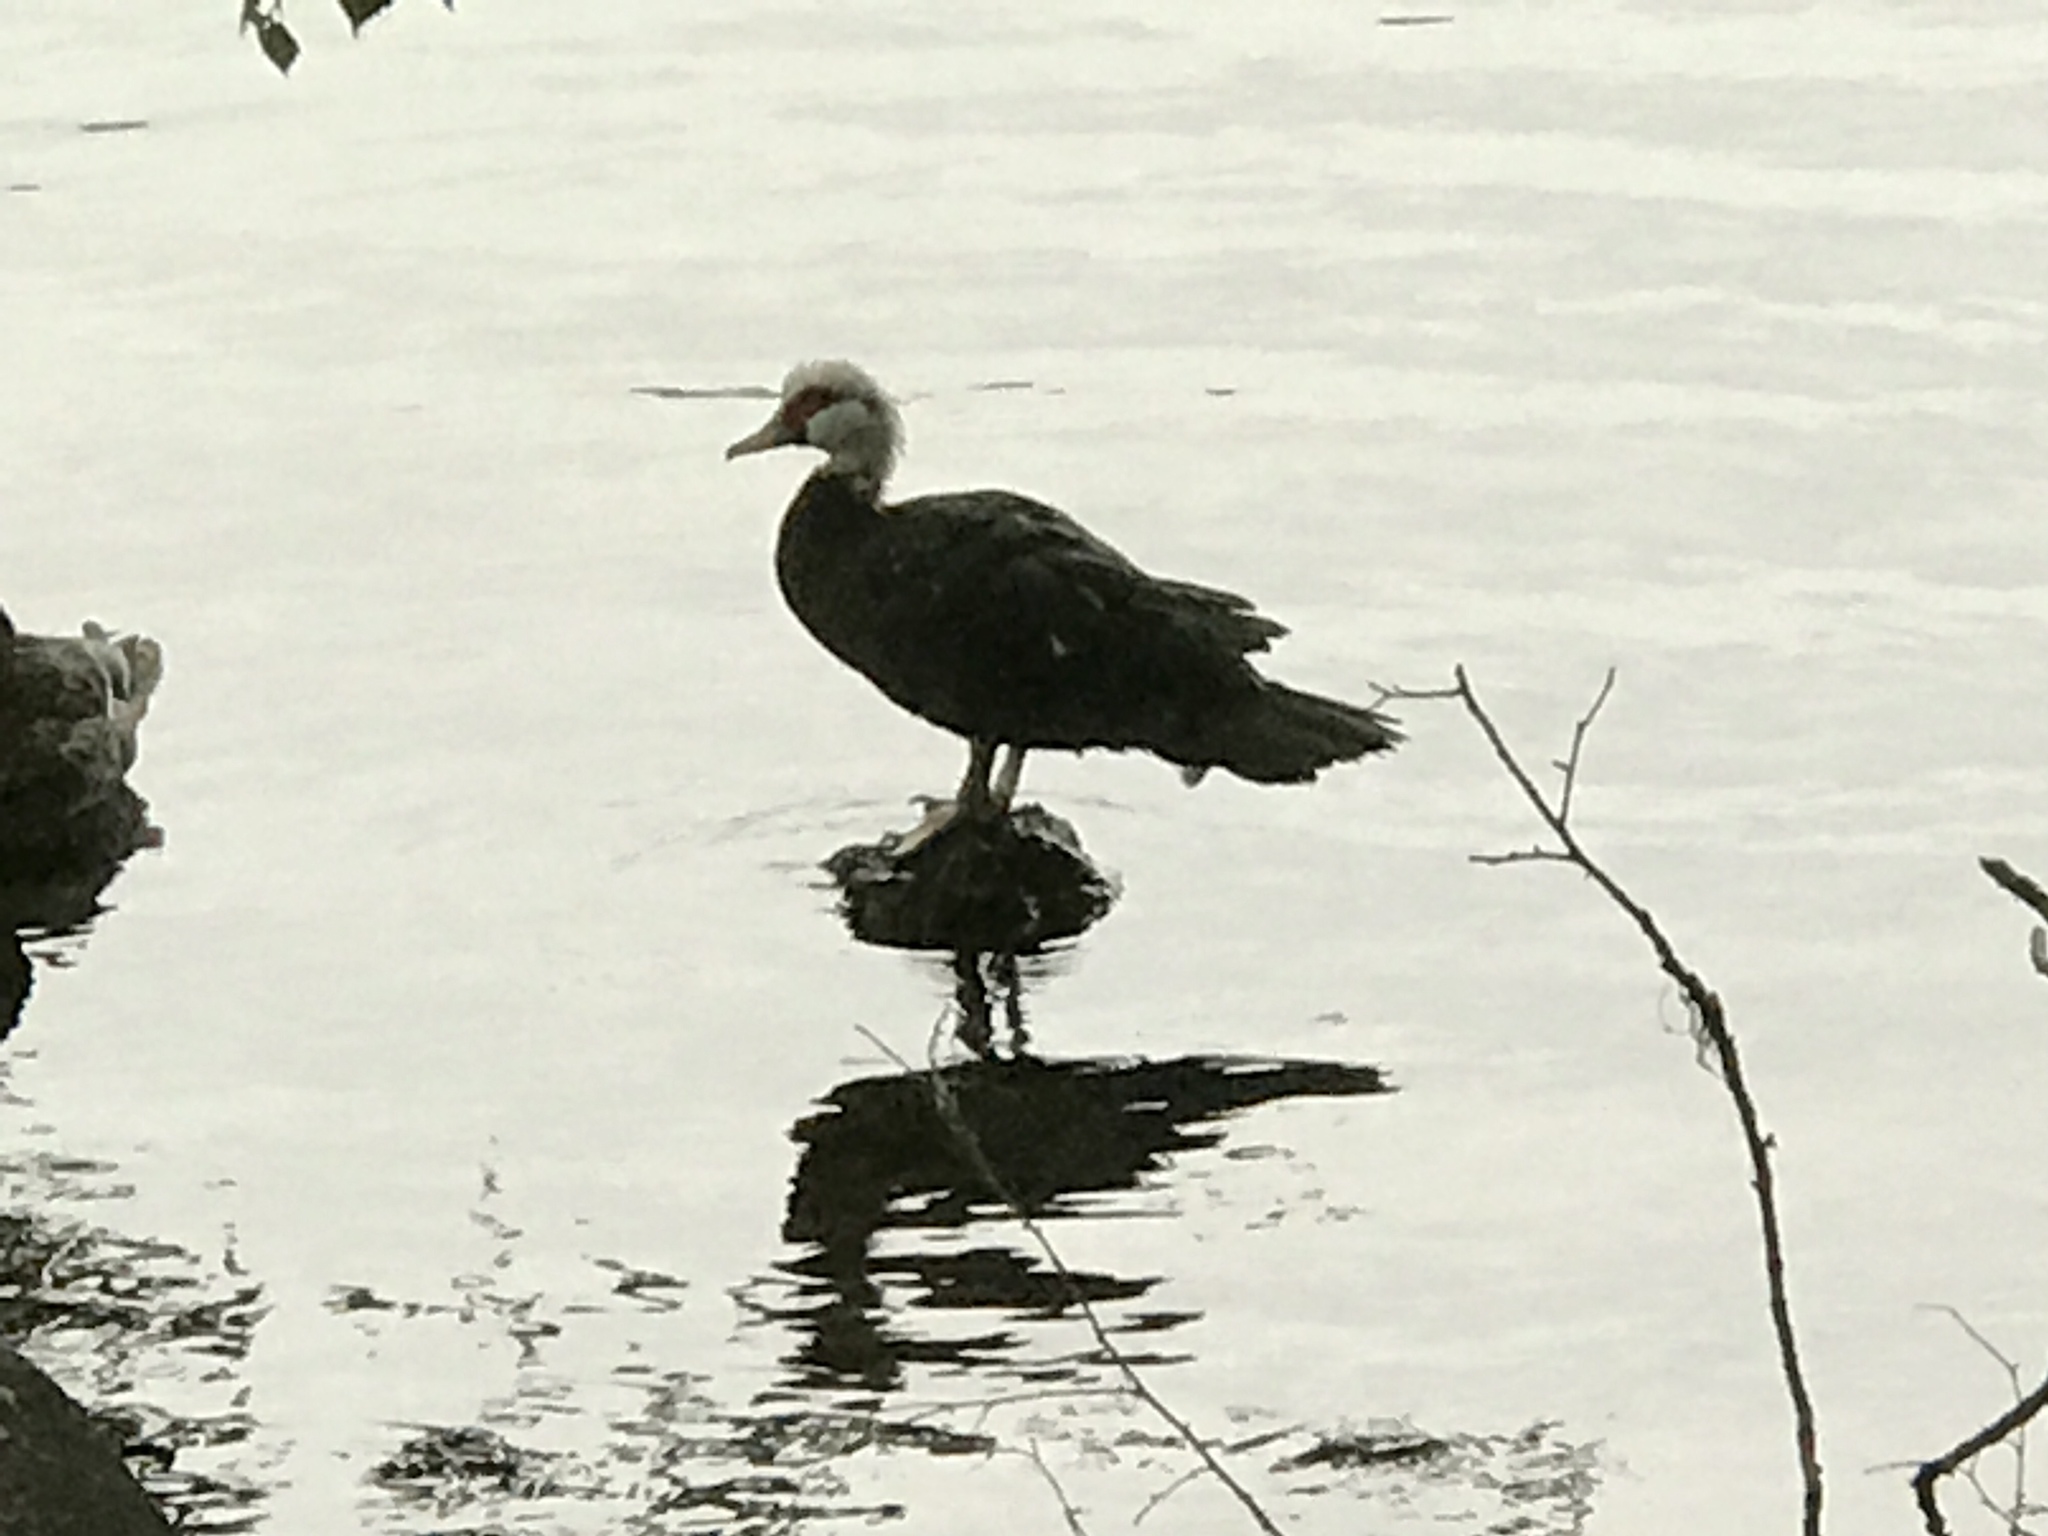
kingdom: Animalia
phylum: Chordata
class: Aves
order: Anseriformes
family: Anatidae
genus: Cairina
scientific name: Cairina moschata
